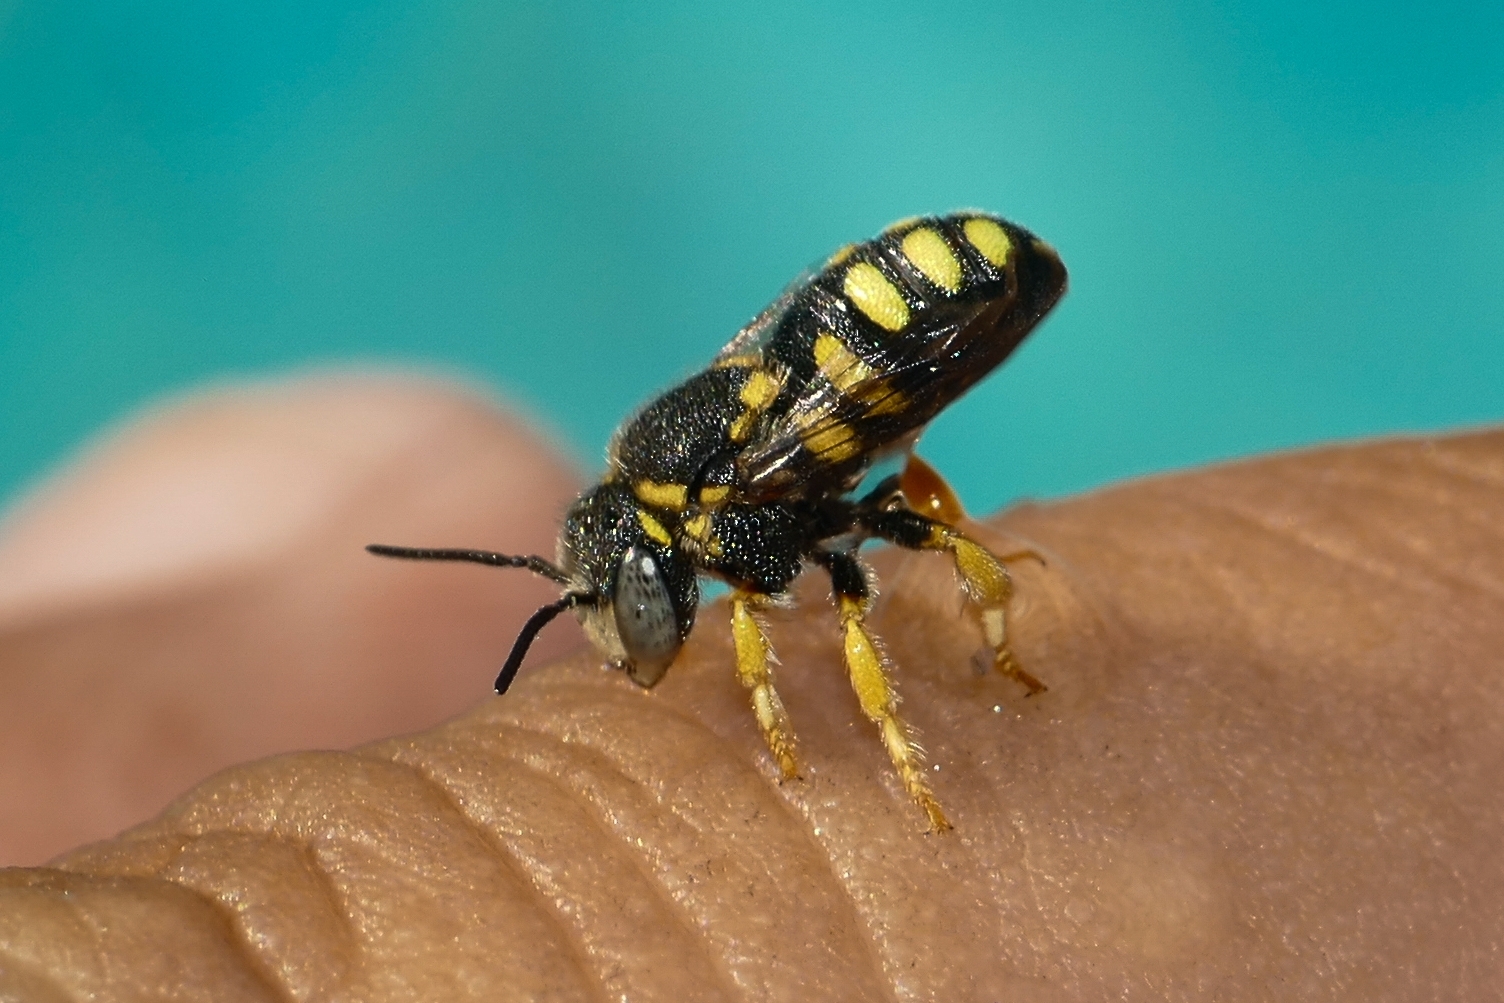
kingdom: Animalia
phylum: Arthropoda
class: Insecta
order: Hymenoptera
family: Megachilidae
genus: Anthidiellum
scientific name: Anthidiellum strigatum
